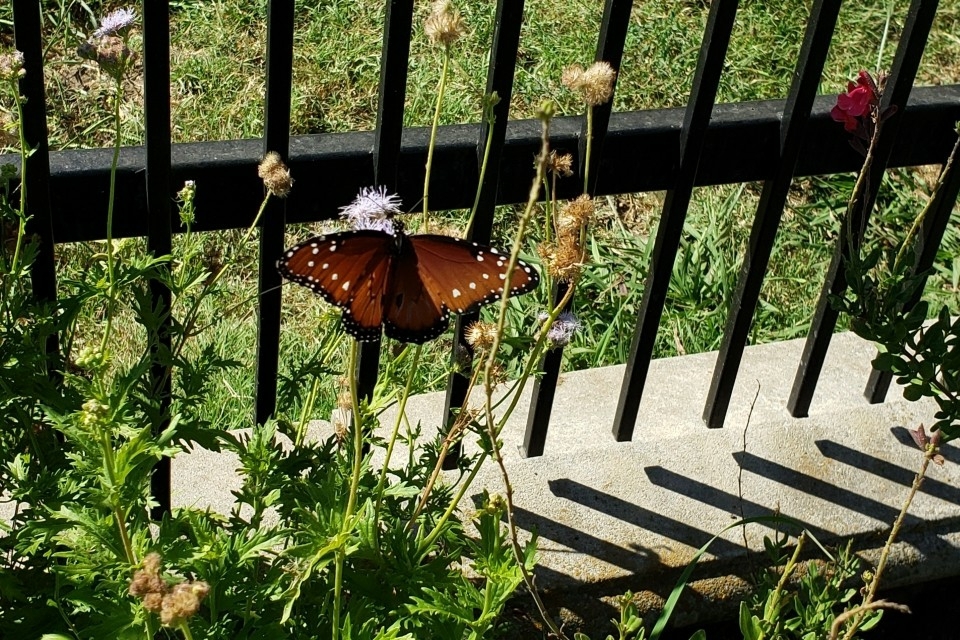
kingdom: Animalia
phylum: Arthropoda
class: Insecta
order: Lepidoptera
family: Nymphalidae
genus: Danaus
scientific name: Danaus gilippus
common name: Queen
